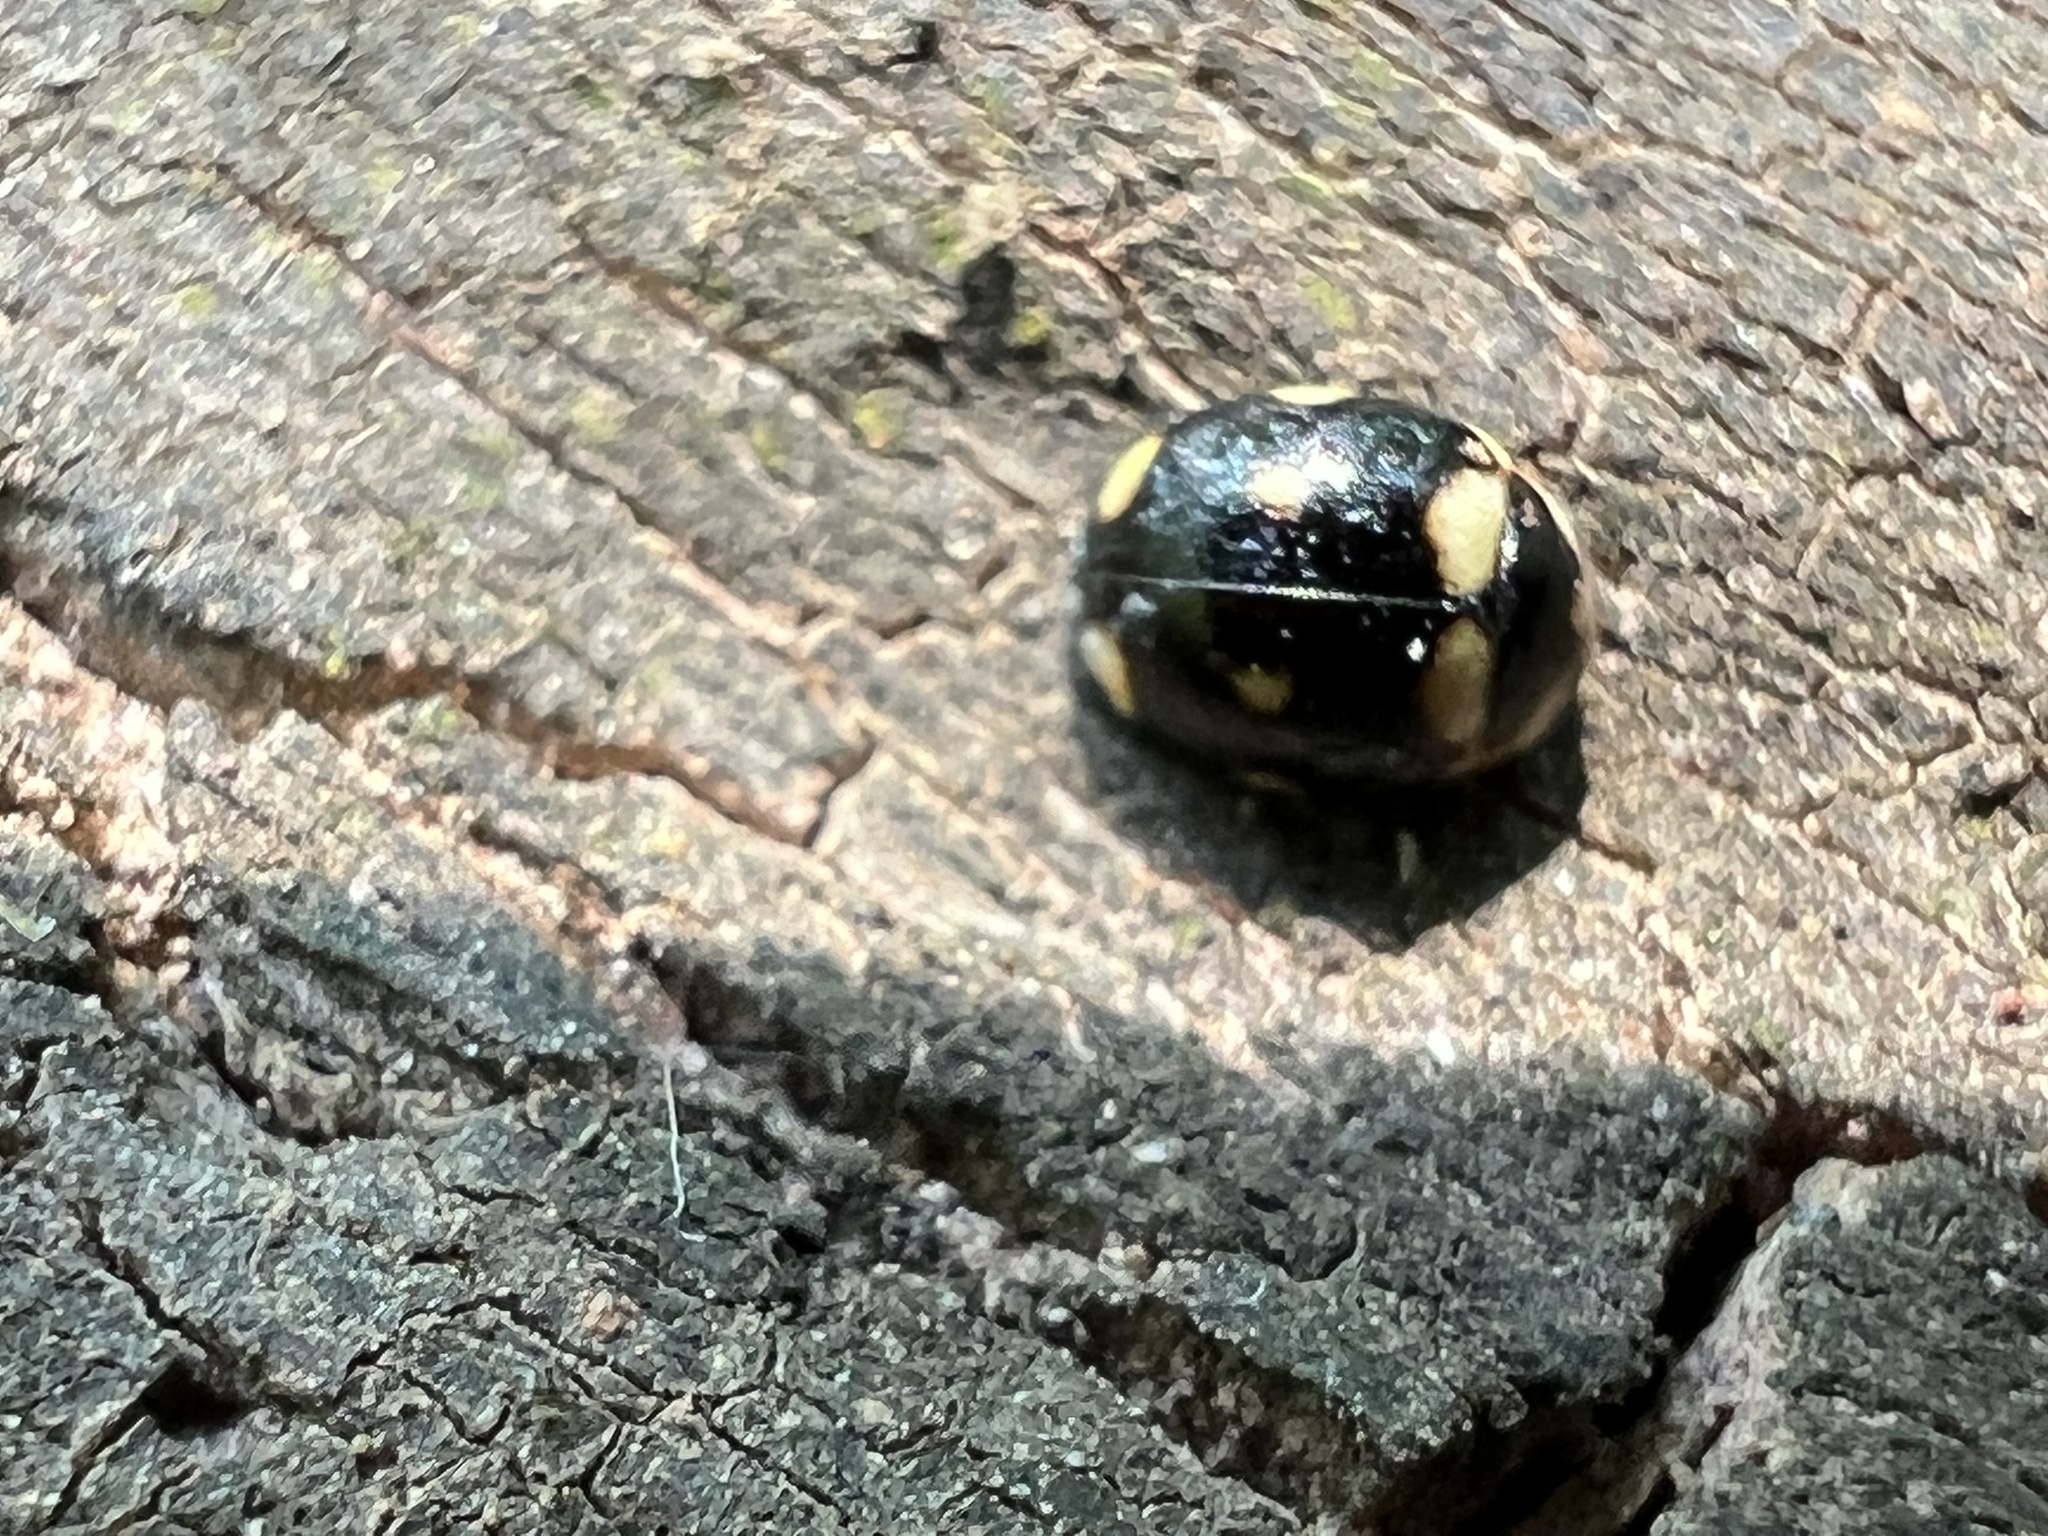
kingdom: Animalia
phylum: Arthropoda
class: Insecta
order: Coleoptera
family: Coccinellidae
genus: Brachiacantha
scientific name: Brachiacantha decempustulata
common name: Ten-spotted spurleg lady beetle
